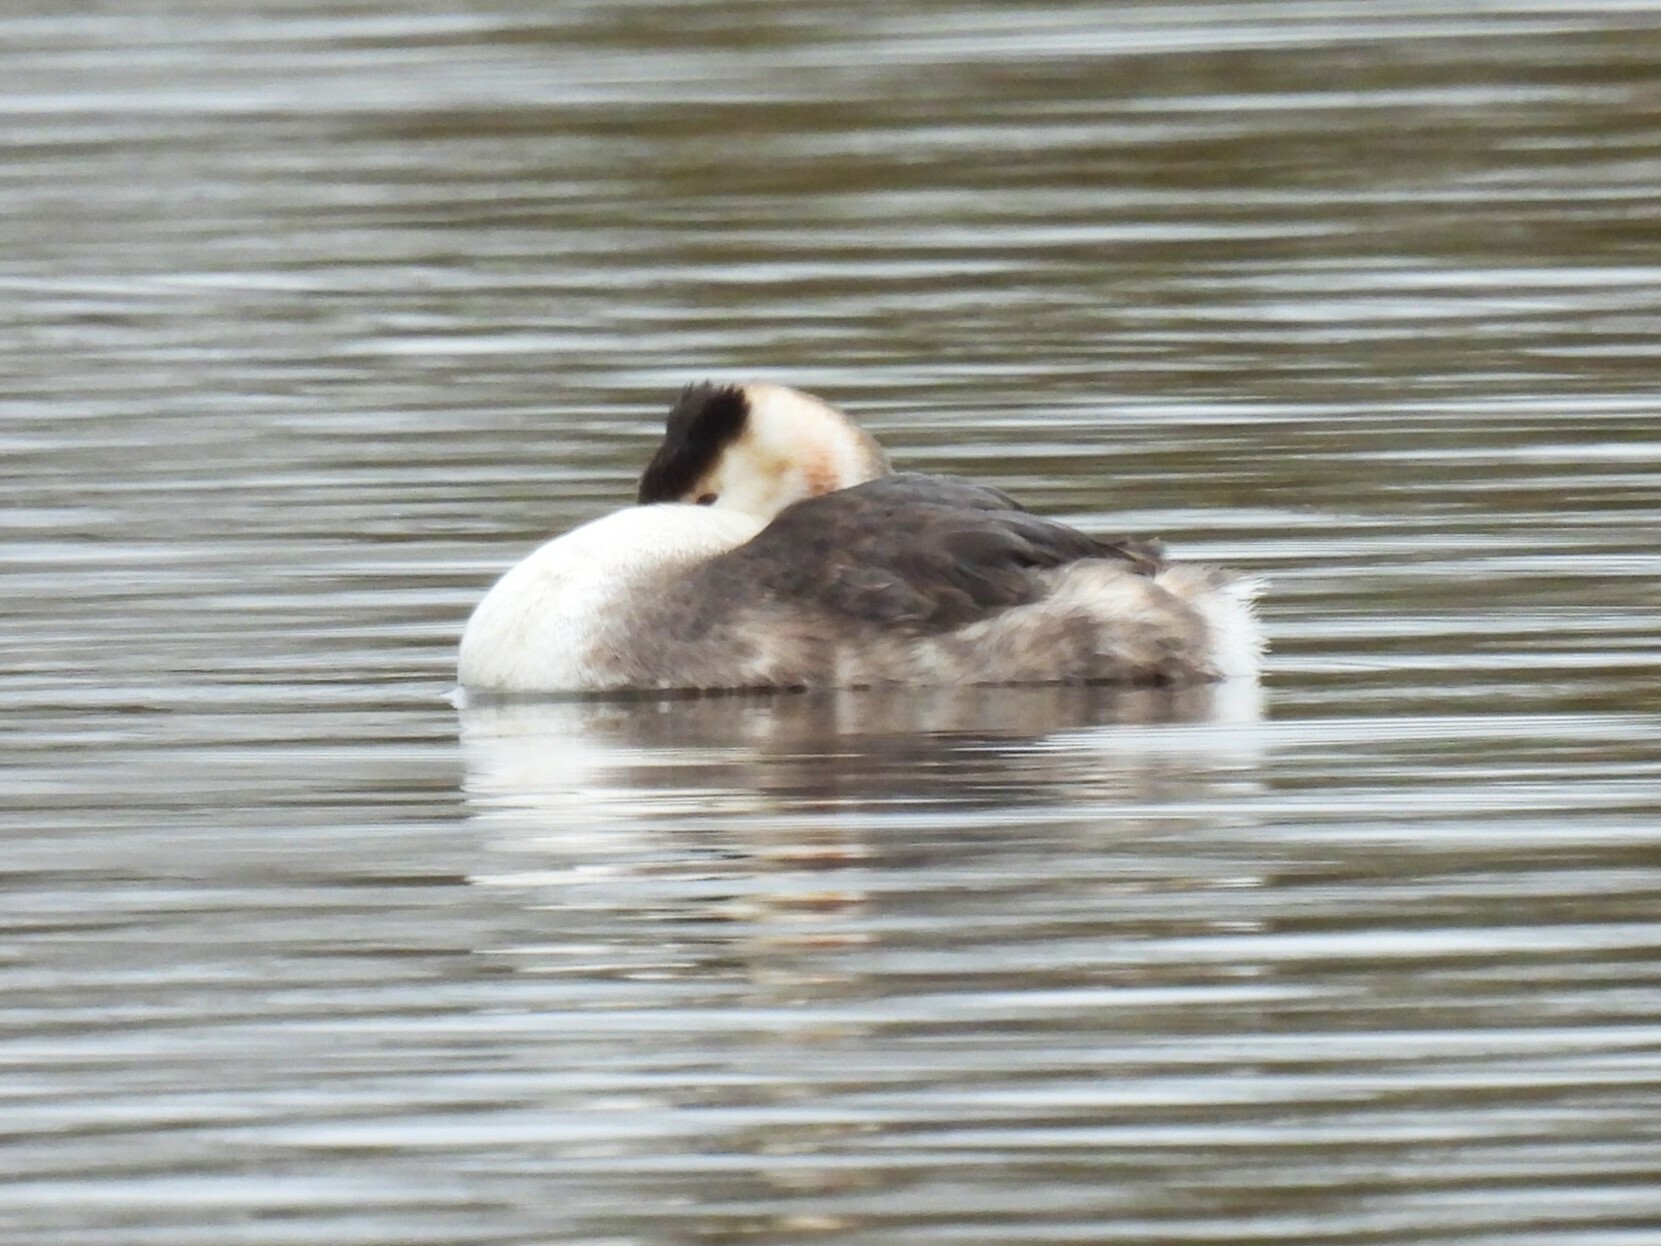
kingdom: Animalia
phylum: Chordata
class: Aves
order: Podicipediformes
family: Podicipedidae
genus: Podiceps
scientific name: Podiceps cristatus
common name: Great crested grebe
